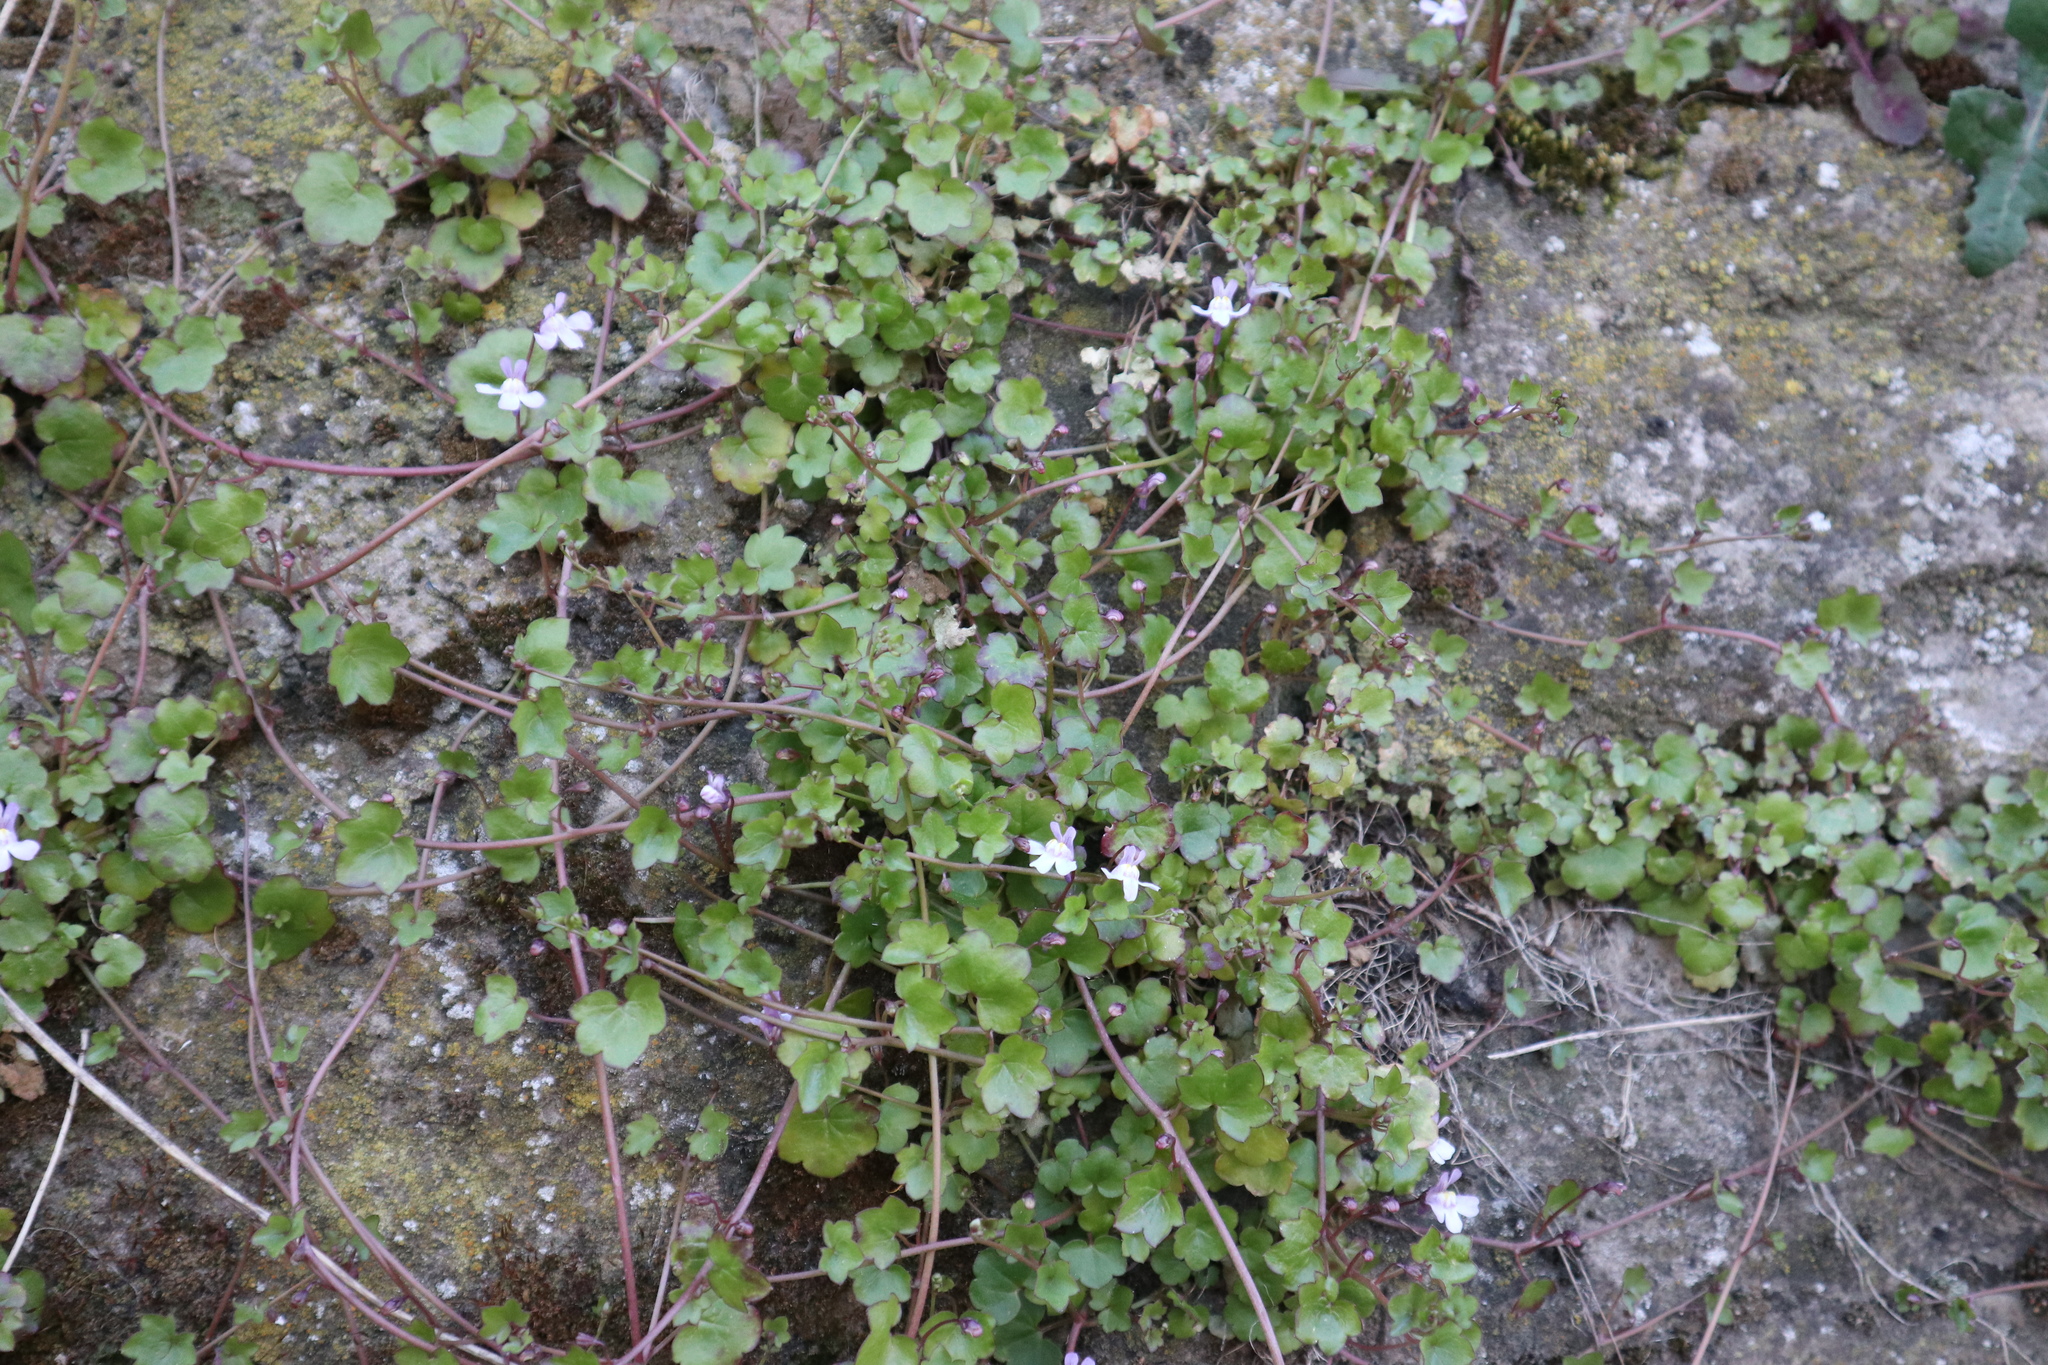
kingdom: Plantae
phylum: Tracheophyta
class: Magnoliopsida
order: Lamiales
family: Plantaginaceae
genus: Cymbalaria
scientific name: Cymbalaria muralis
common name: Ivy-leaved toadflax
